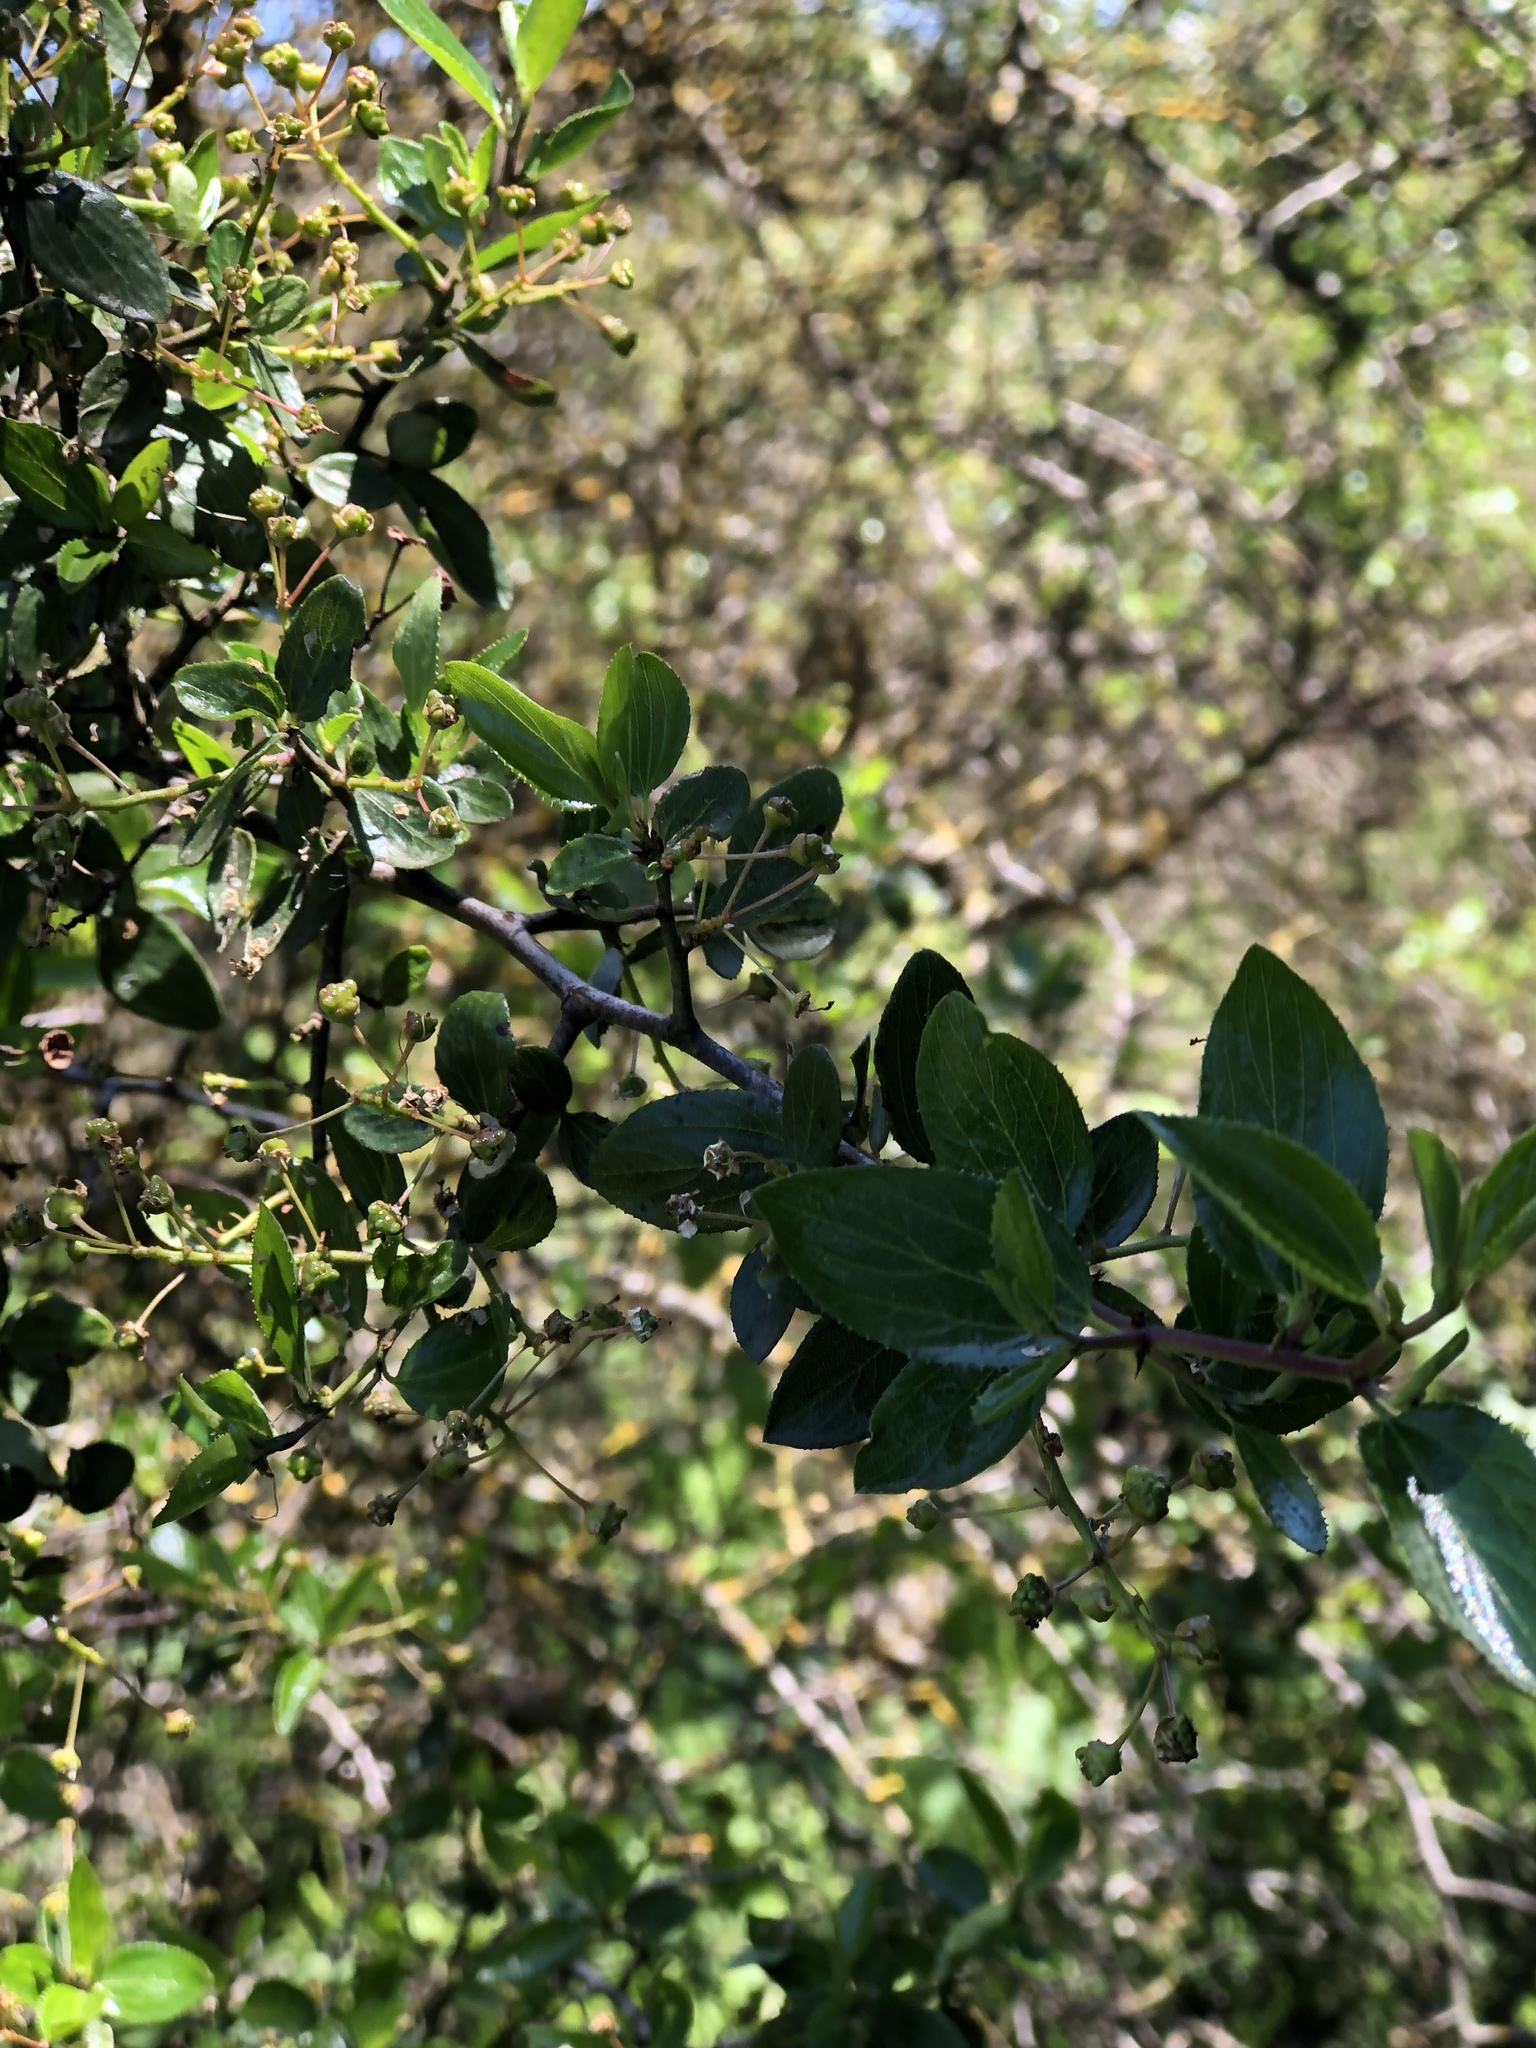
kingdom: Plantae
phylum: Tracheophyta
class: Magnoliopsida
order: Rosales
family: Rhamnaceae
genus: Ceanothus
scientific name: Ceanothus oliganthus
